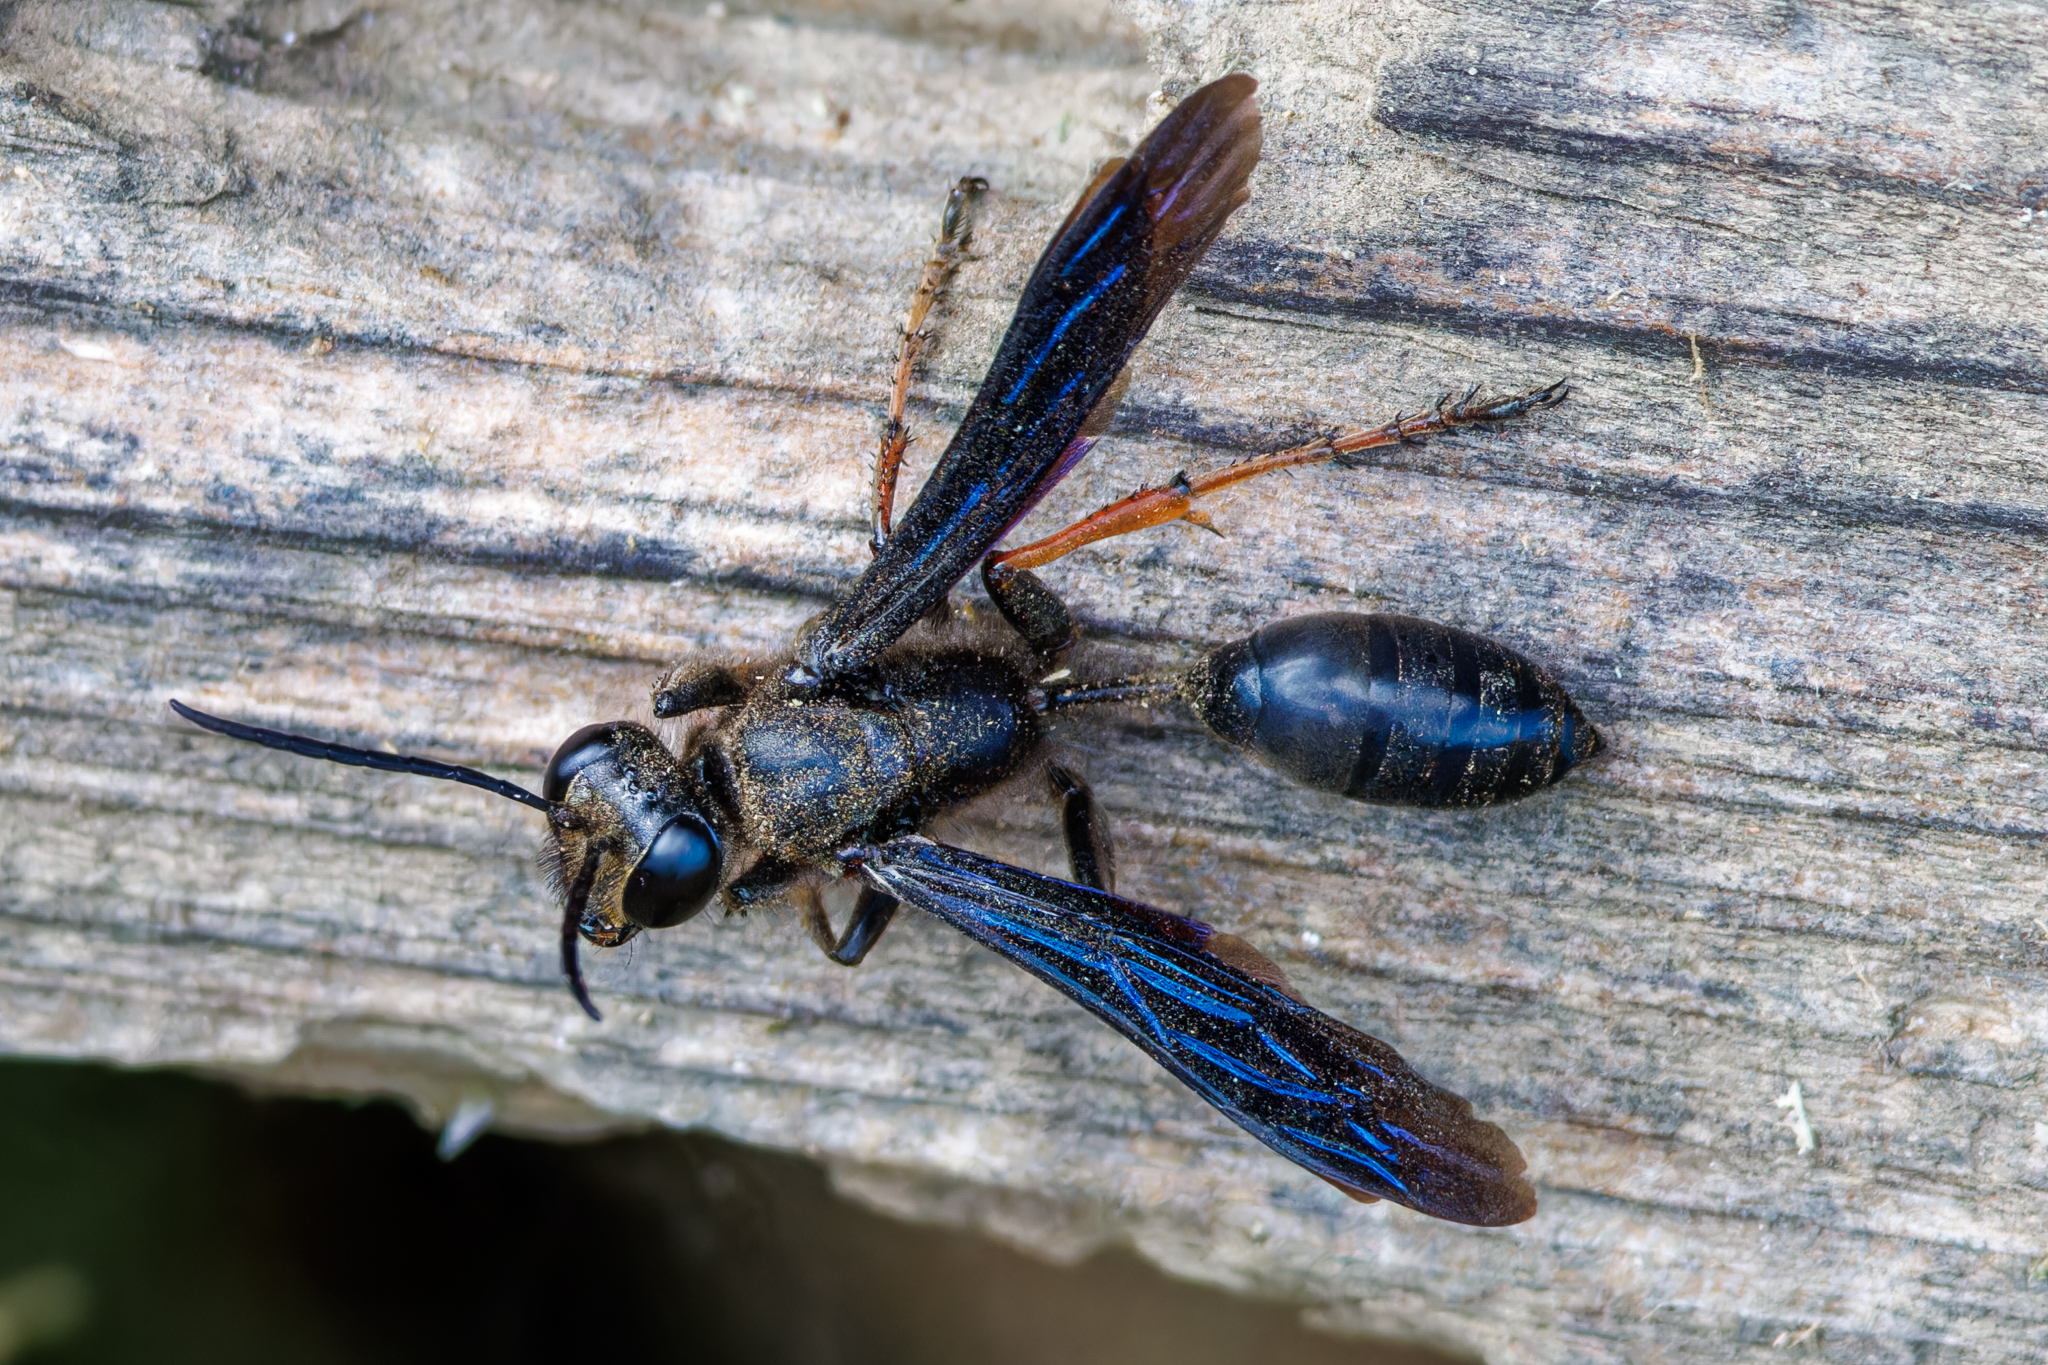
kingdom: Animalia
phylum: Arthropoda
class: Insecta
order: Hymenoptera
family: Sphecidae
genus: Isodontia
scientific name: Isodontia auripes
